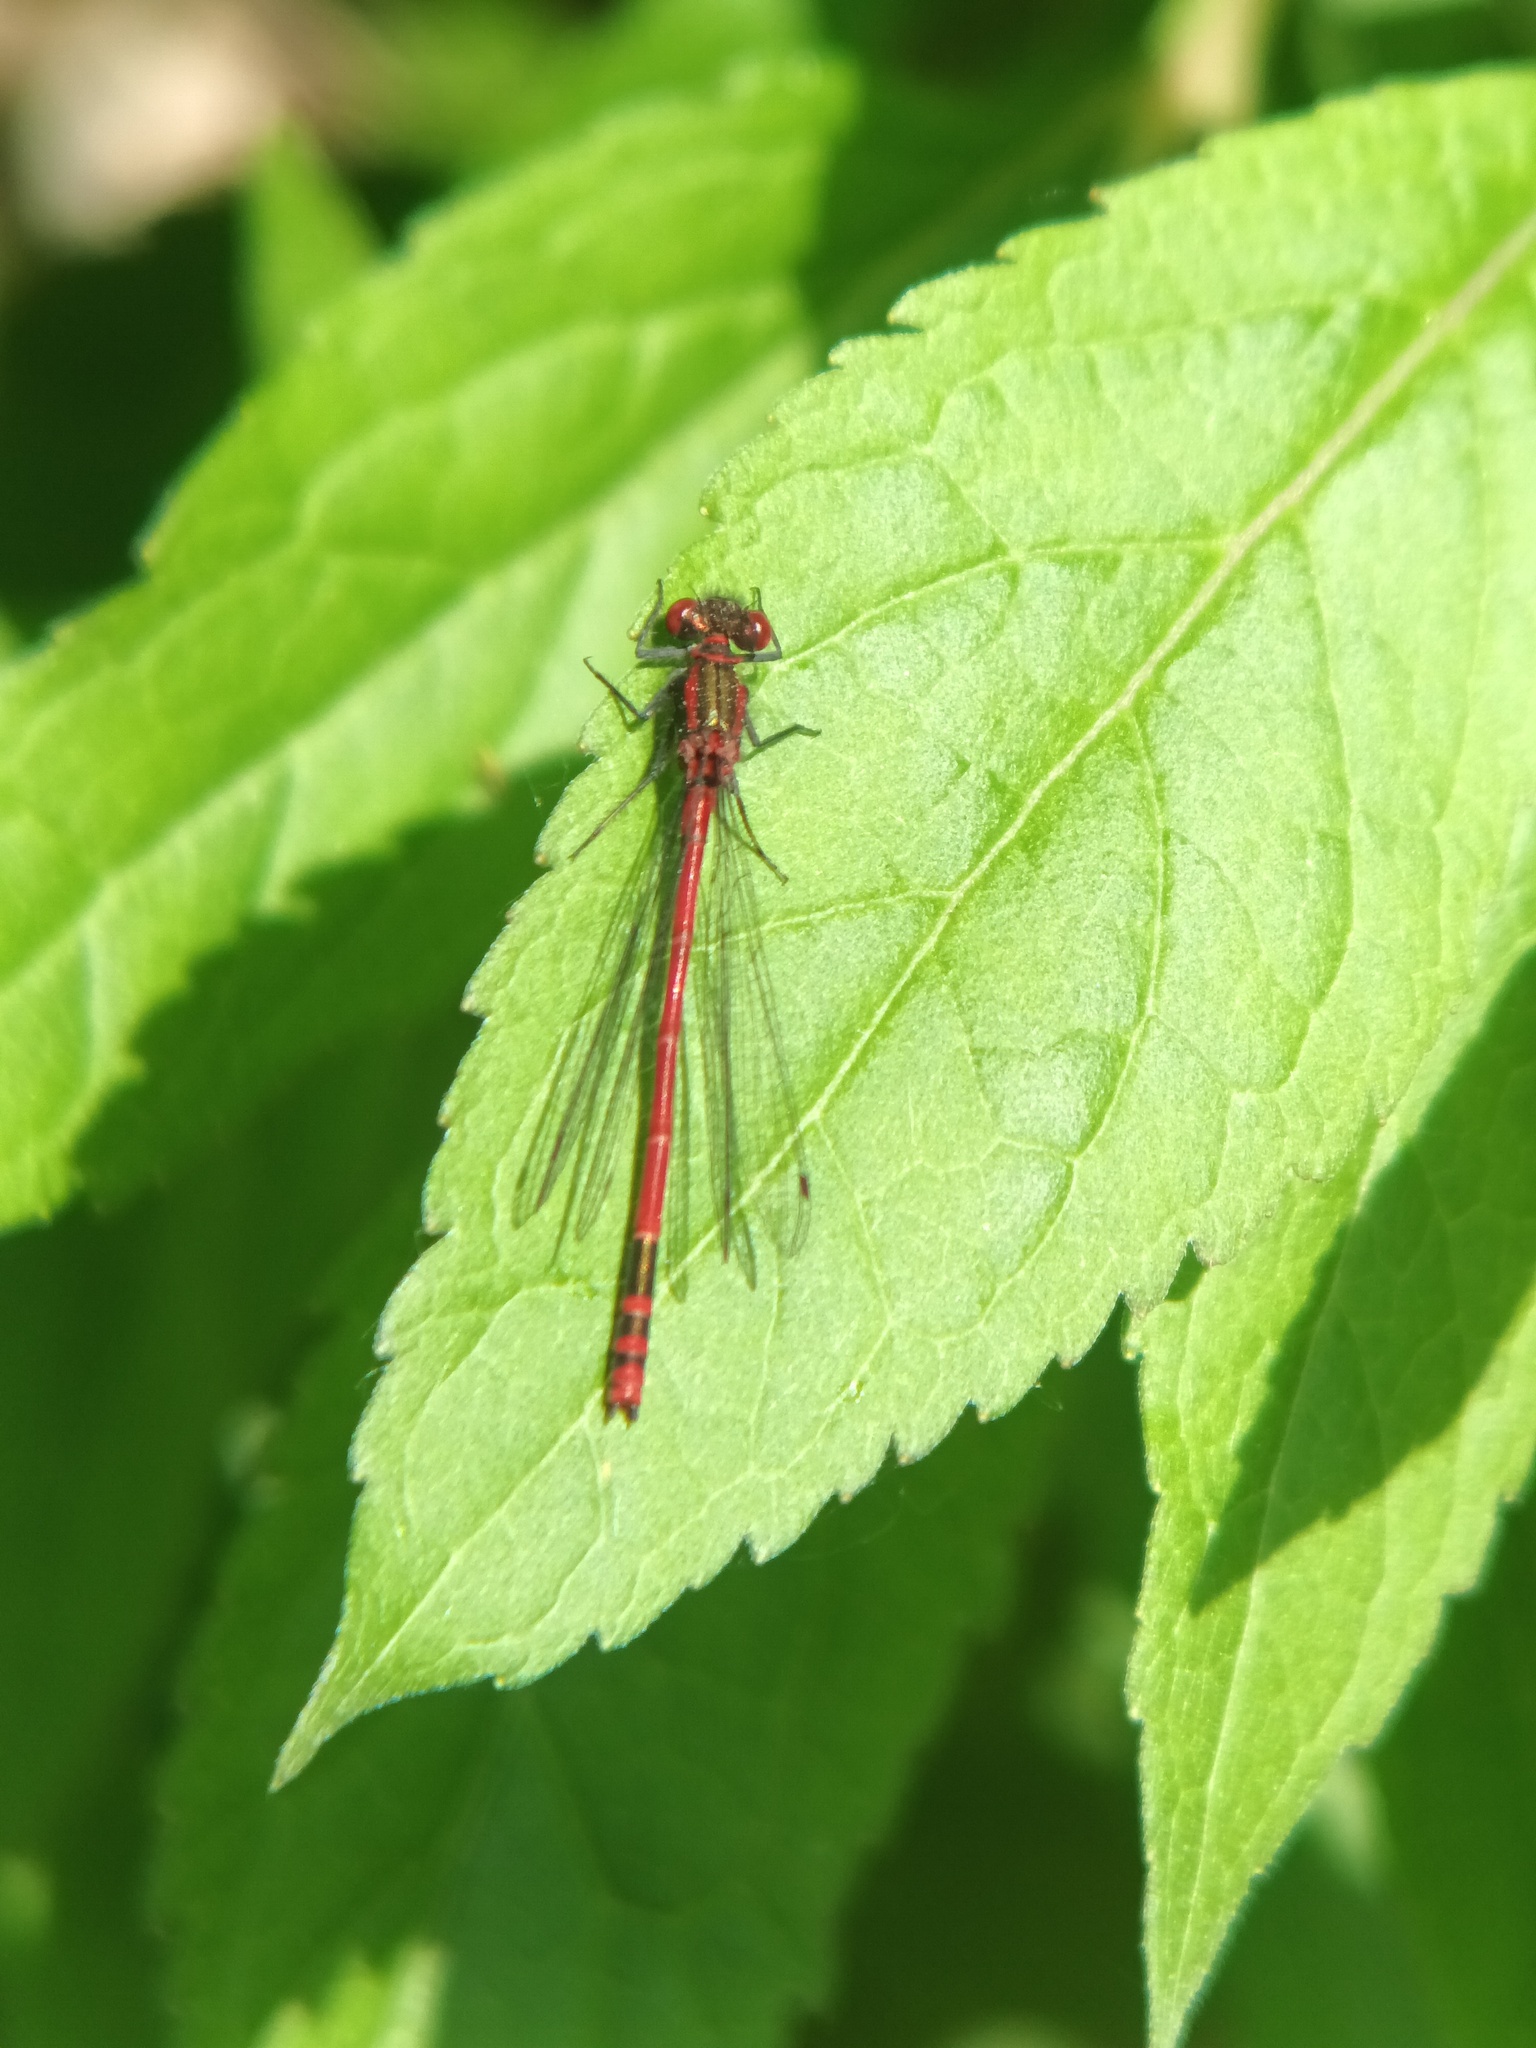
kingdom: Animalia
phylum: Arthropoda
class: Insecta
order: Odonata
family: Coenagrionidae
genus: Pyrrhosoma
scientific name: Pyrrhosoma nymphula
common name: Large red damsel
